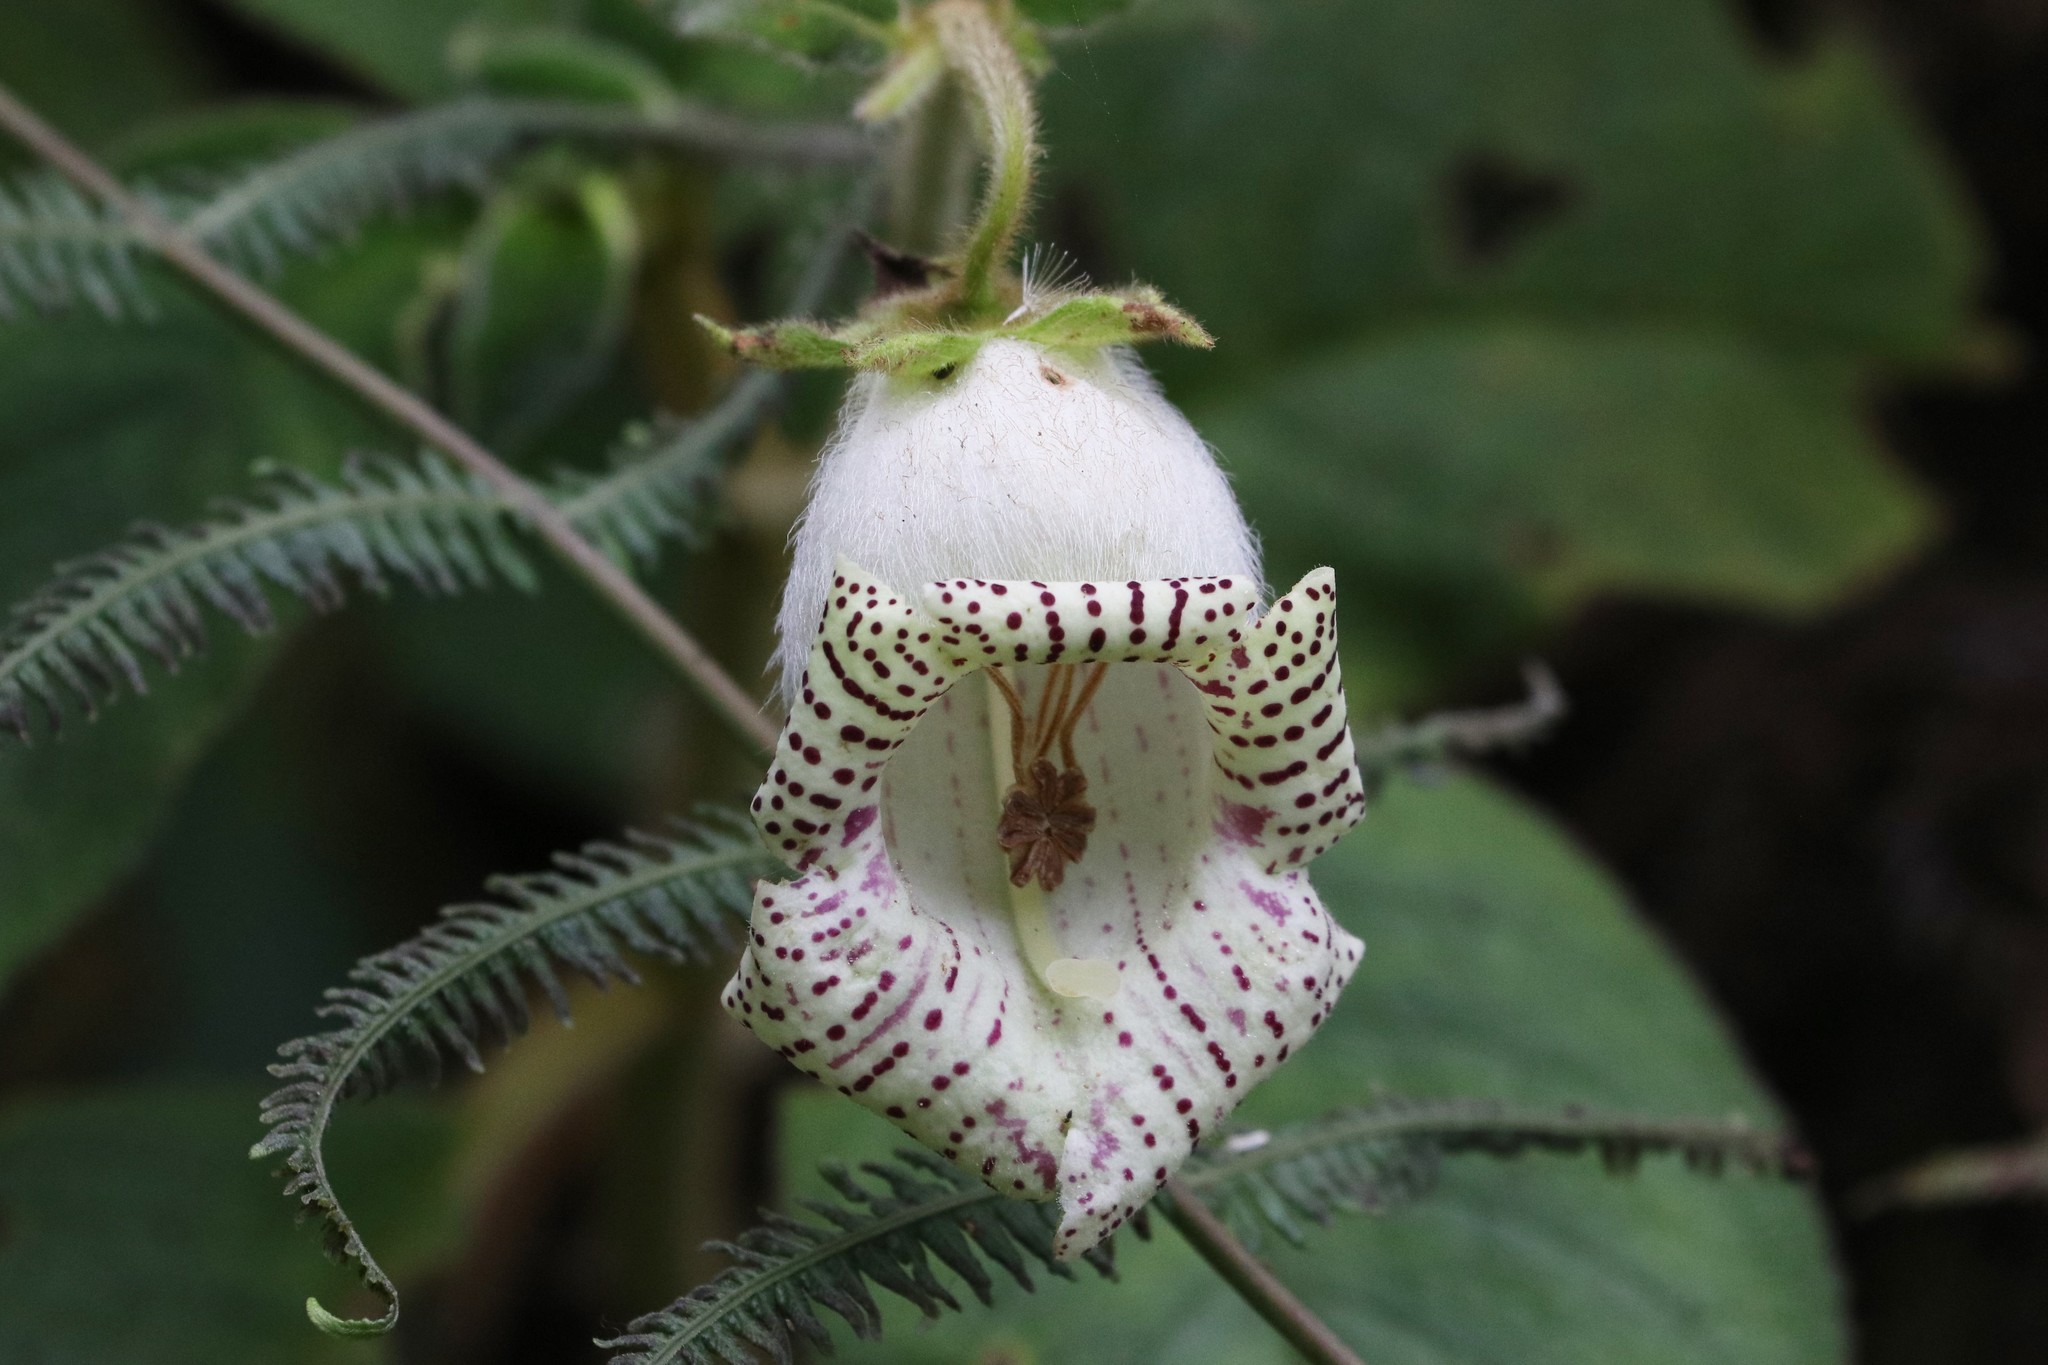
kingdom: Plantae
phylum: Tracheophyta
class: Magnoliopsida
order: Lamiales
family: Gesneriaceae
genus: Kohleria
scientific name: Kohleria tigridia
